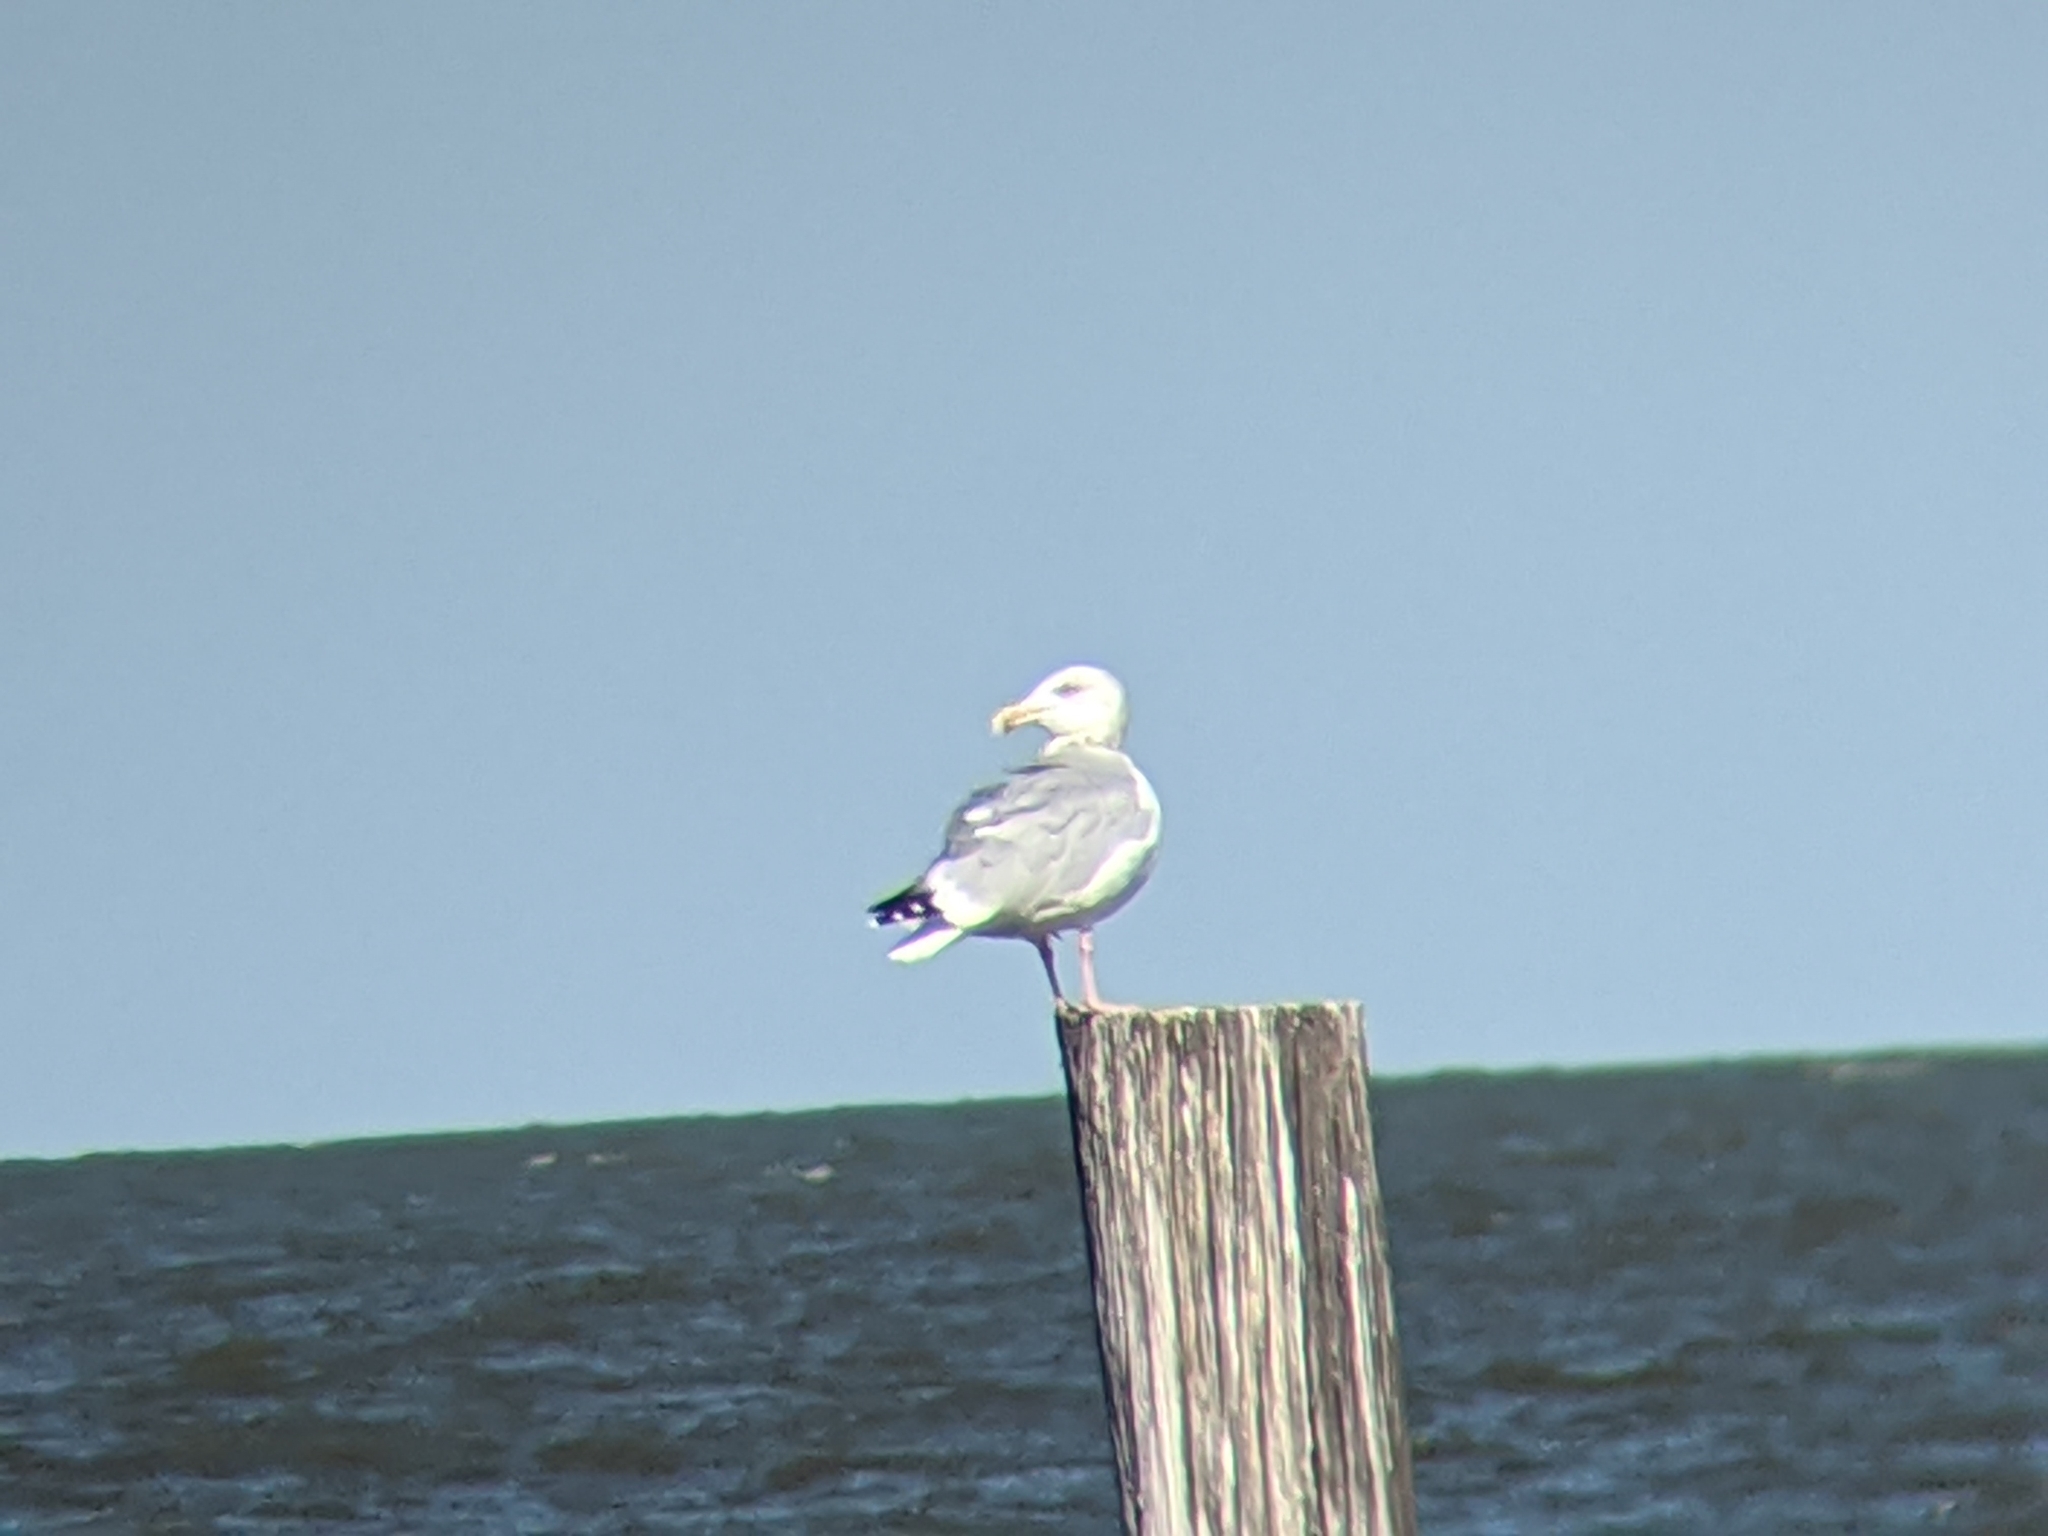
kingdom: Animalia
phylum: Chordata
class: Aves
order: Charadriiformes
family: Laridae
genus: Larus
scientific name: Larus argentatus
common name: Herring gull
